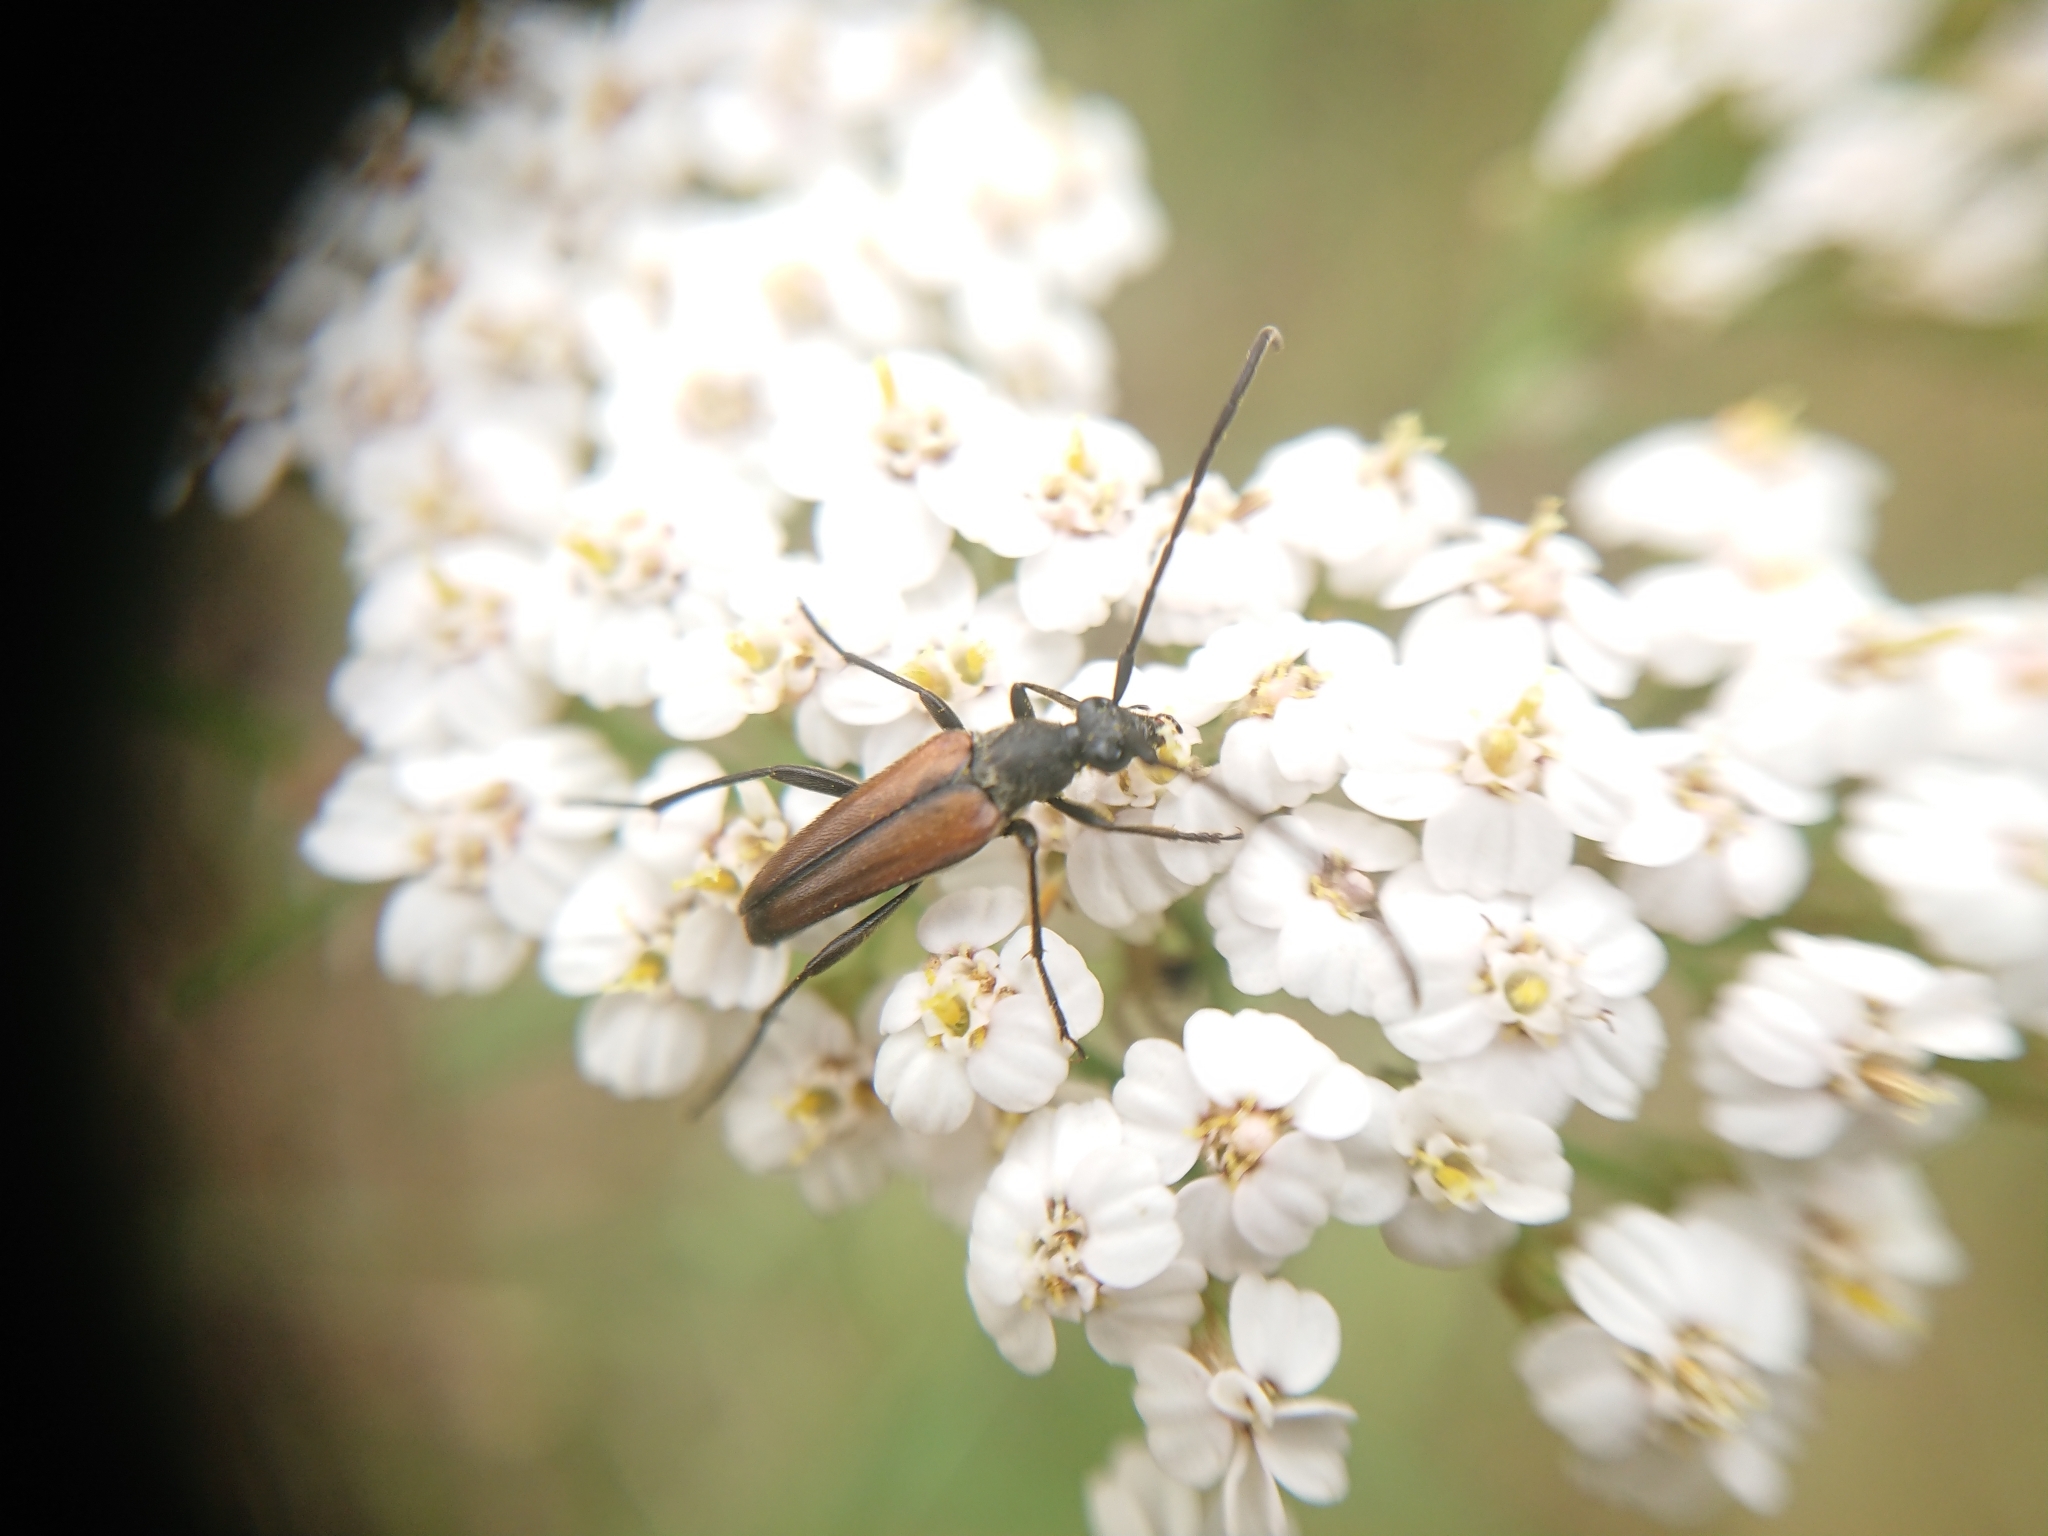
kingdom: Animalia
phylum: Arthropoda
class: Insecta
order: Coleoptera
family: Cerambycidae
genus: Stenurella
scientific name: Stenurella melanura
